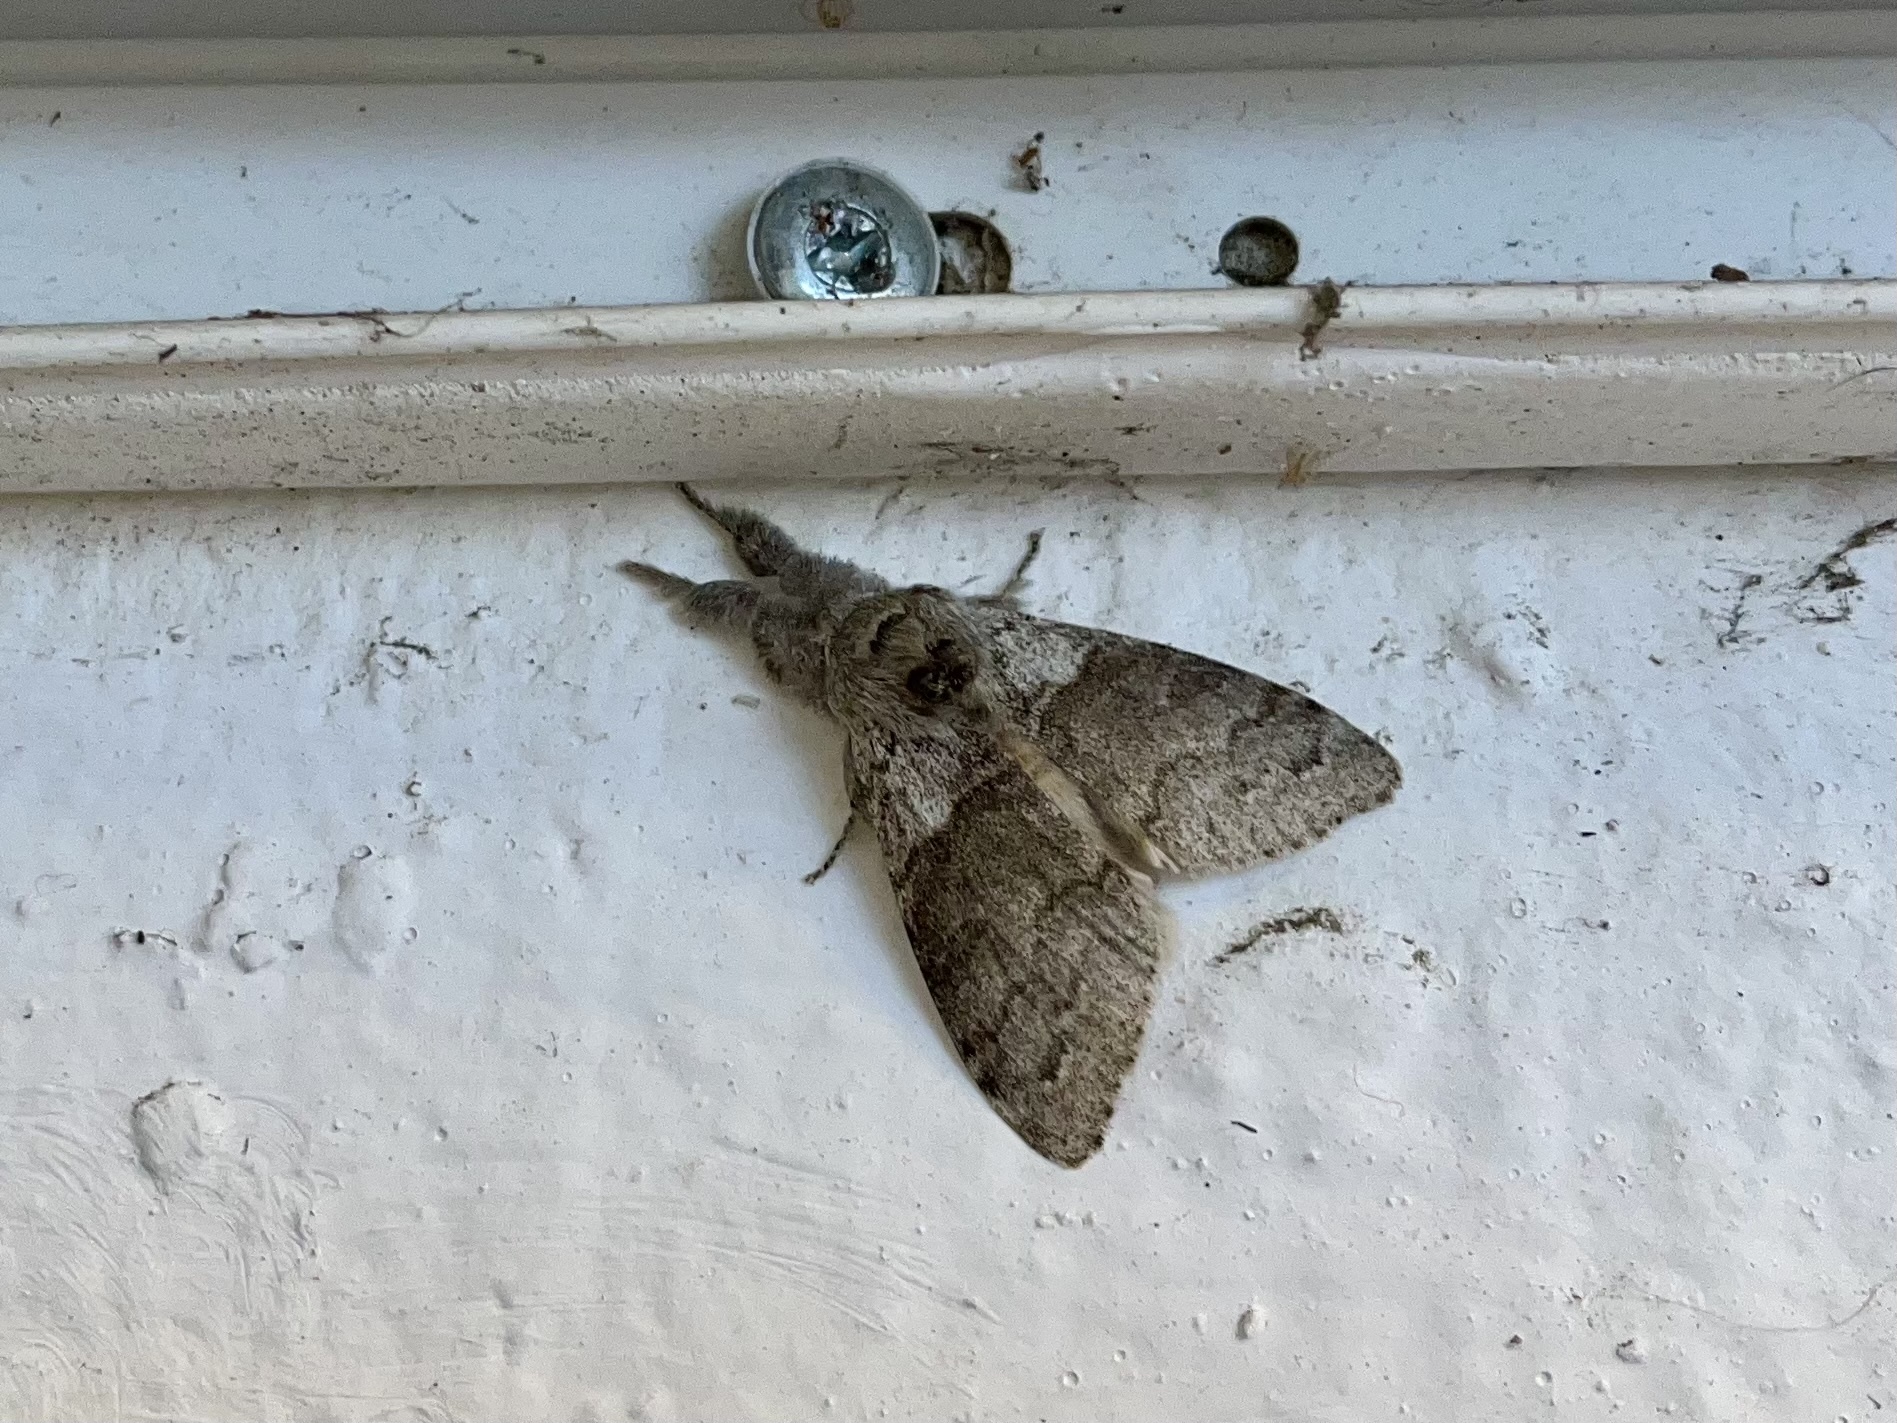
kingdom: Animalia
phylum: Arthropoda
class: Insecta
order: Lepidoptera
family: Erebidae
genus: Calliteara
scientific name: Calliteara pudibunda
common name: Pale tussock
